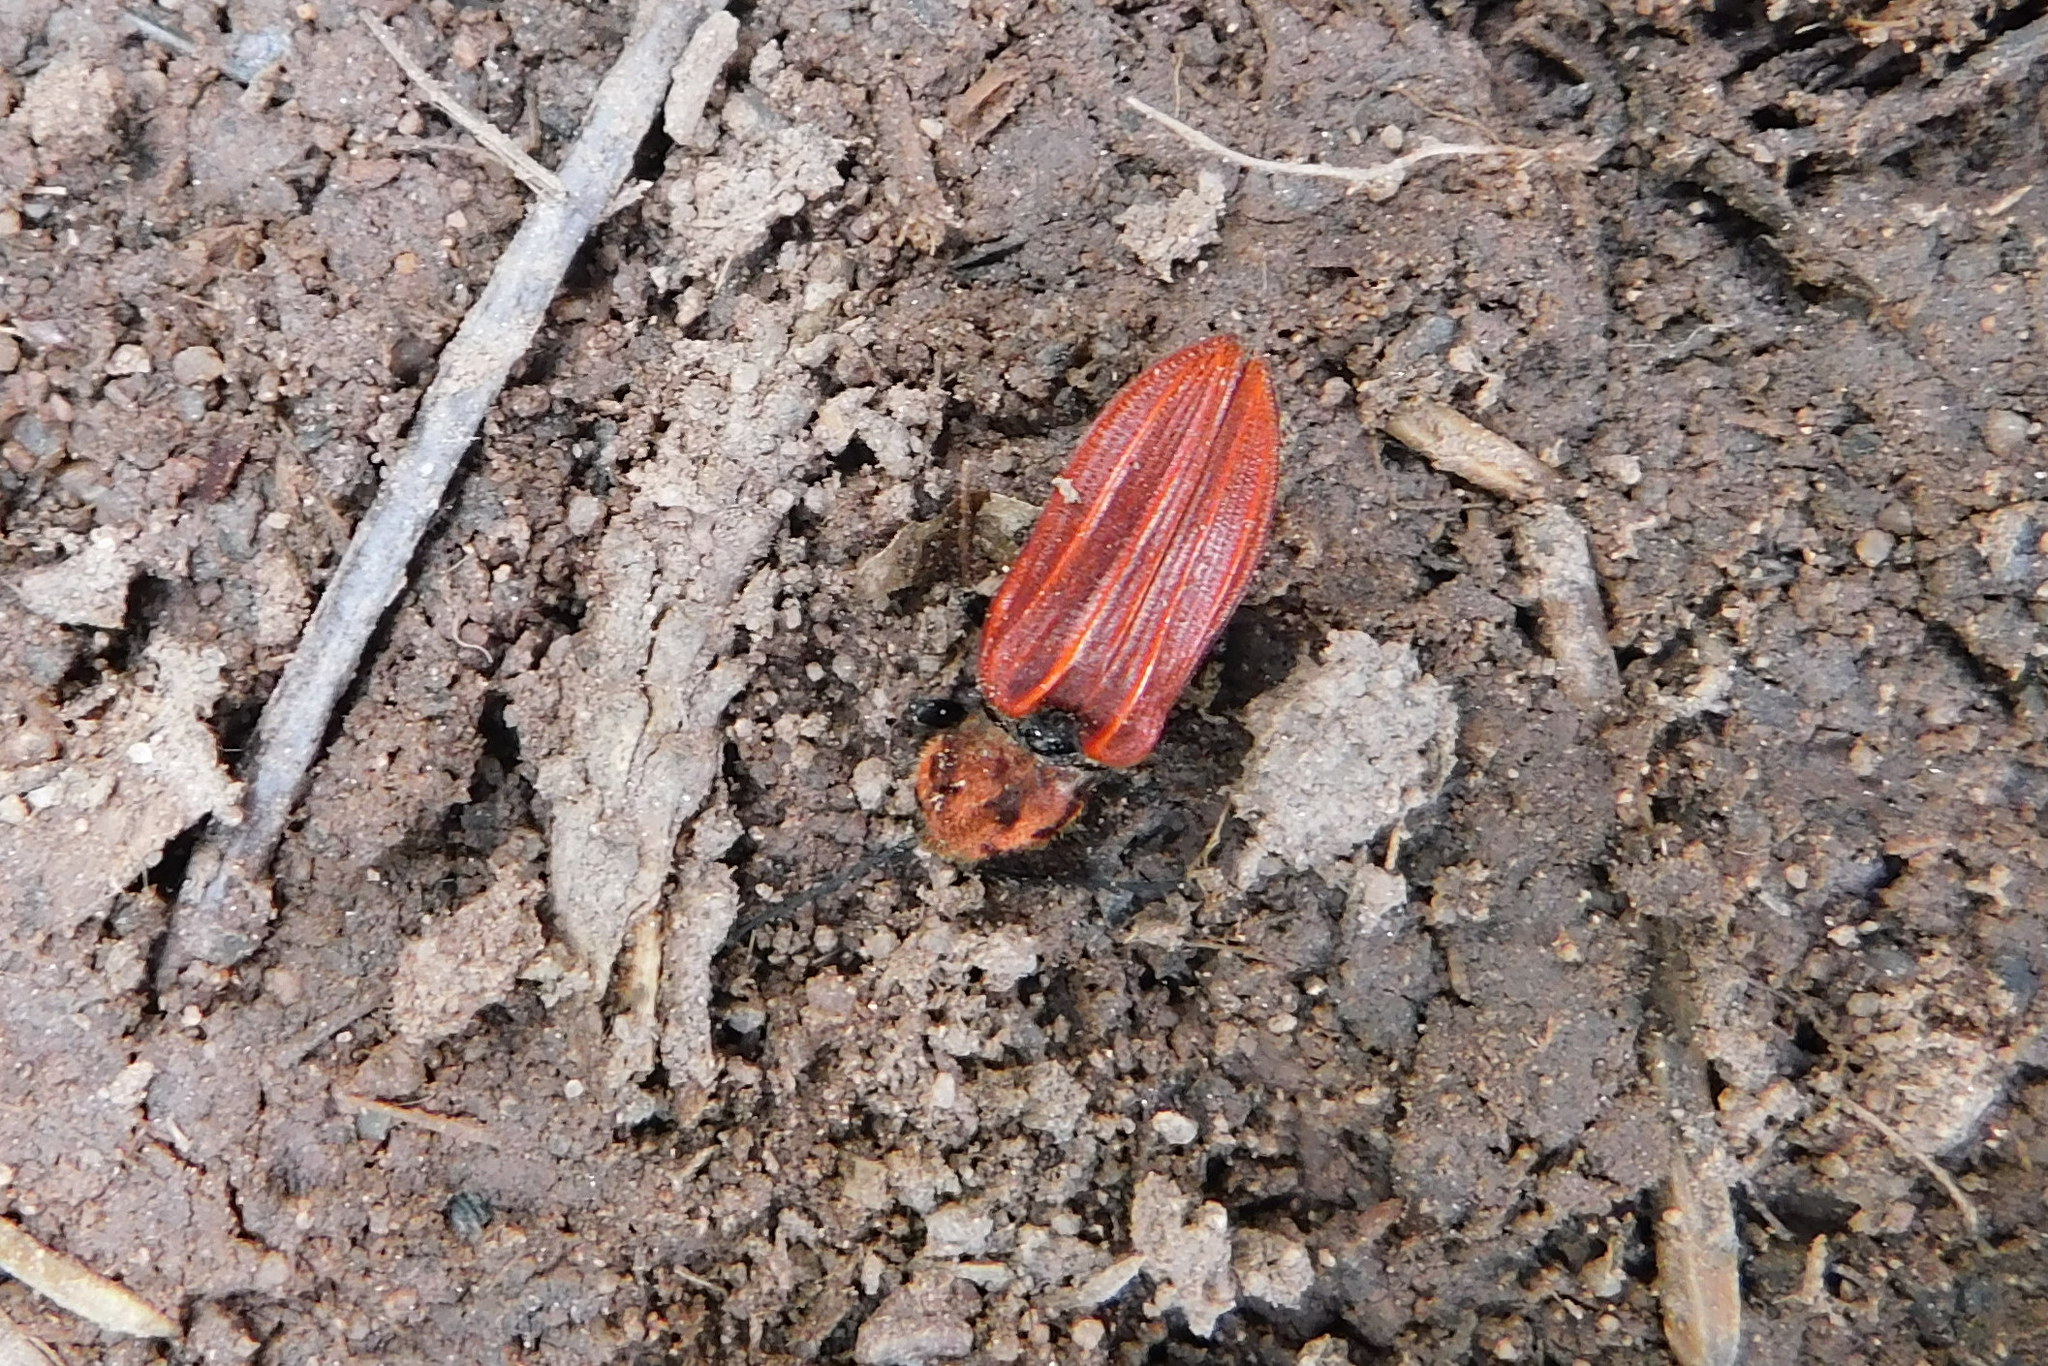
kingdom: Animalia
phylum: Arthropoda
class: Insecta
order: Coleoptera
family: Elateridae
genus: Anostirus
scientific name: Anostirus purpureus
